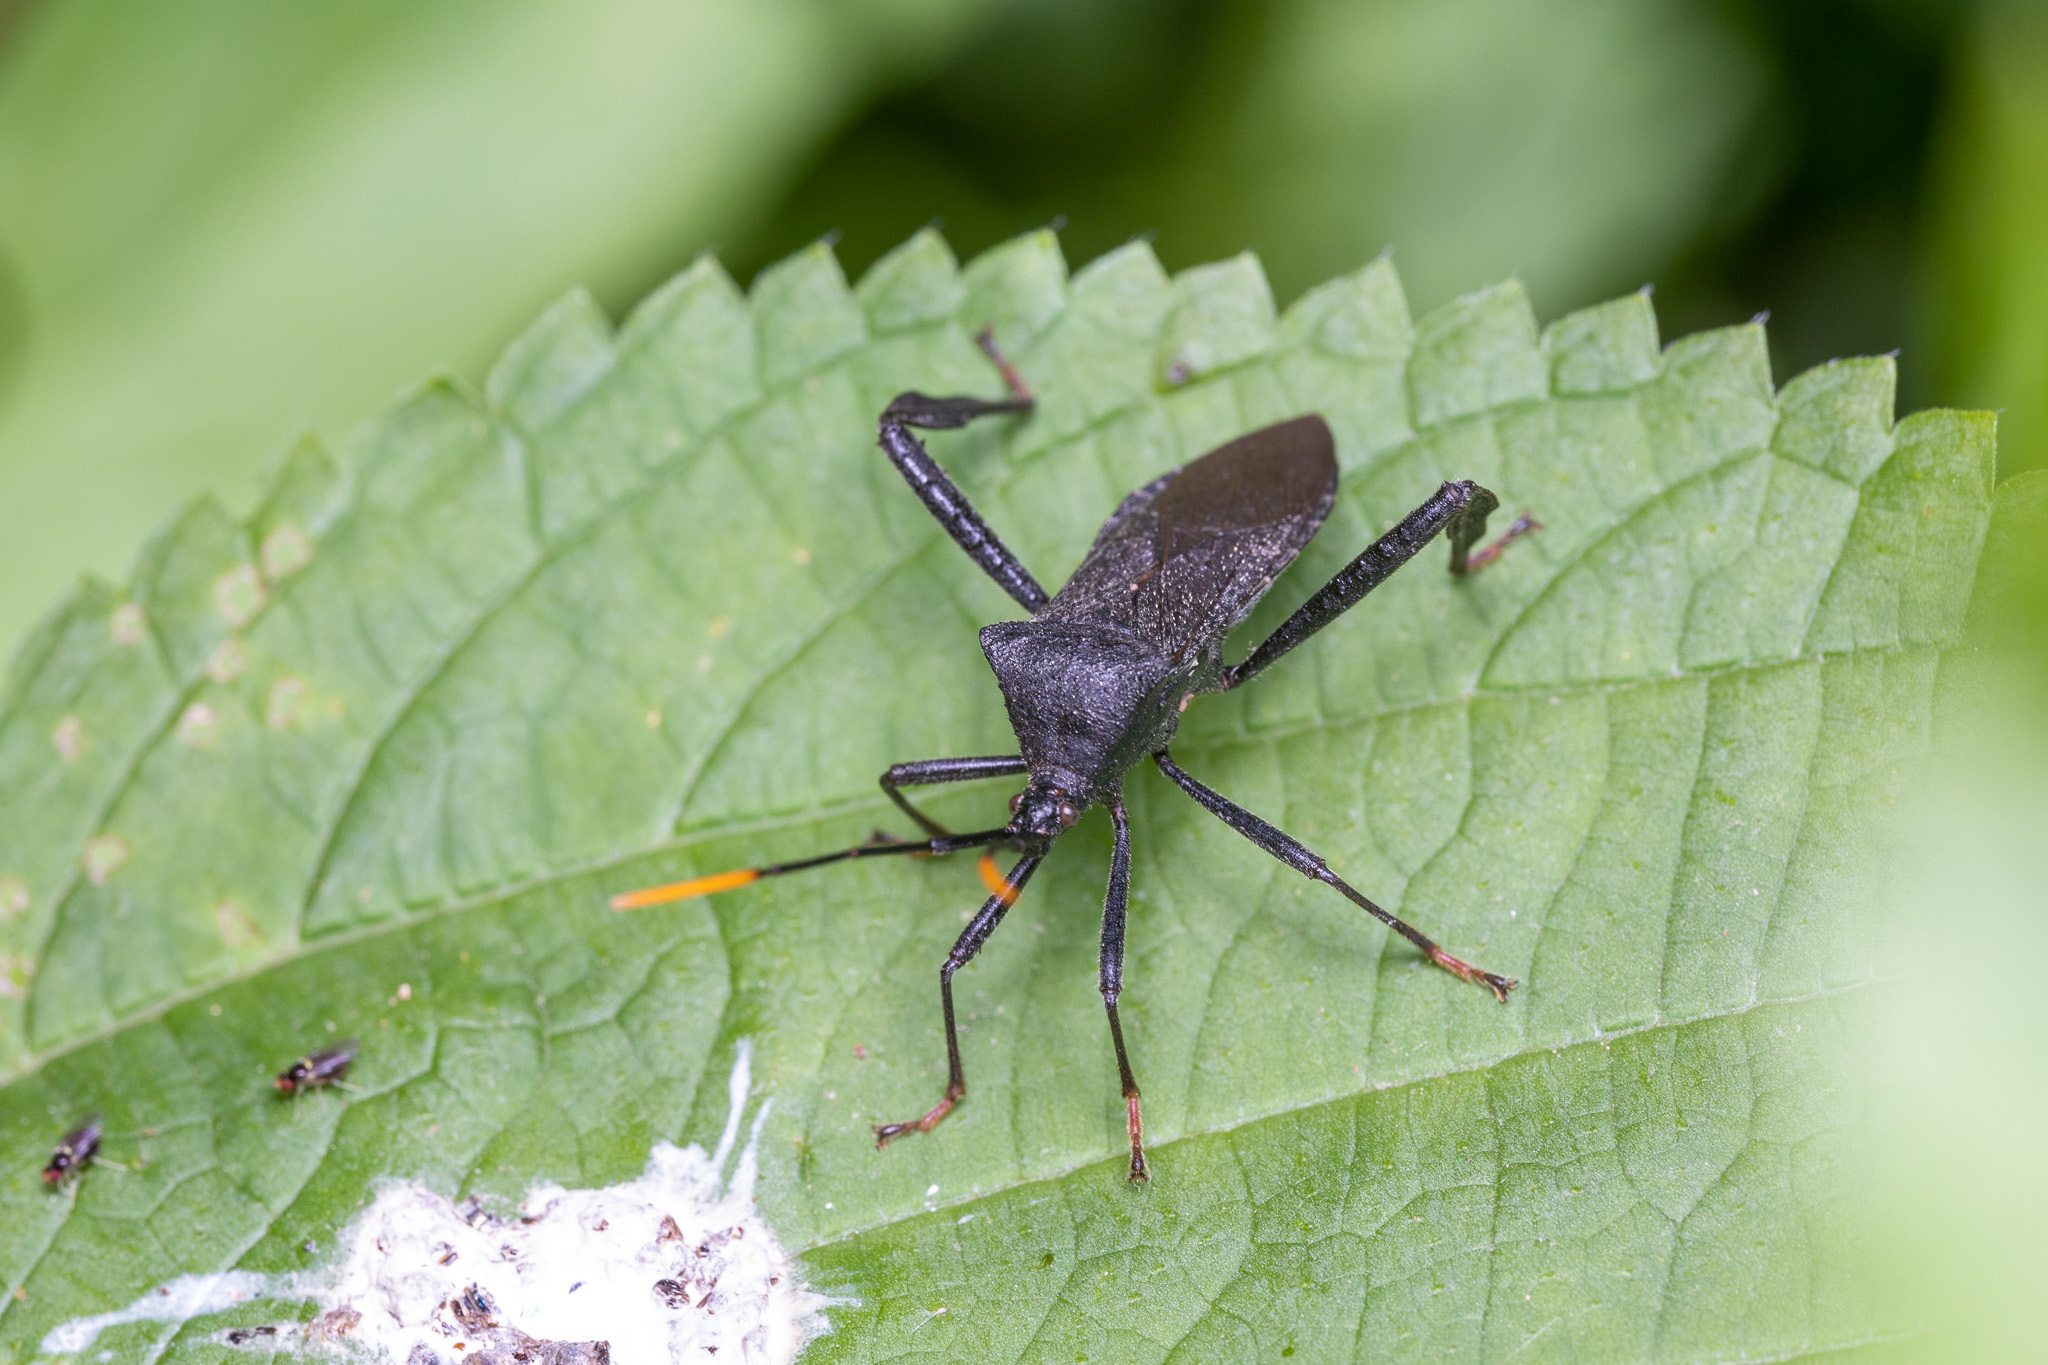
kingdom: Animalia
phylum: Arthropoda
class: Insecta
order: Hemiptera
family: Coreidae
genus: Acanthocephala
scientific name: Acanthocephala terminalis
